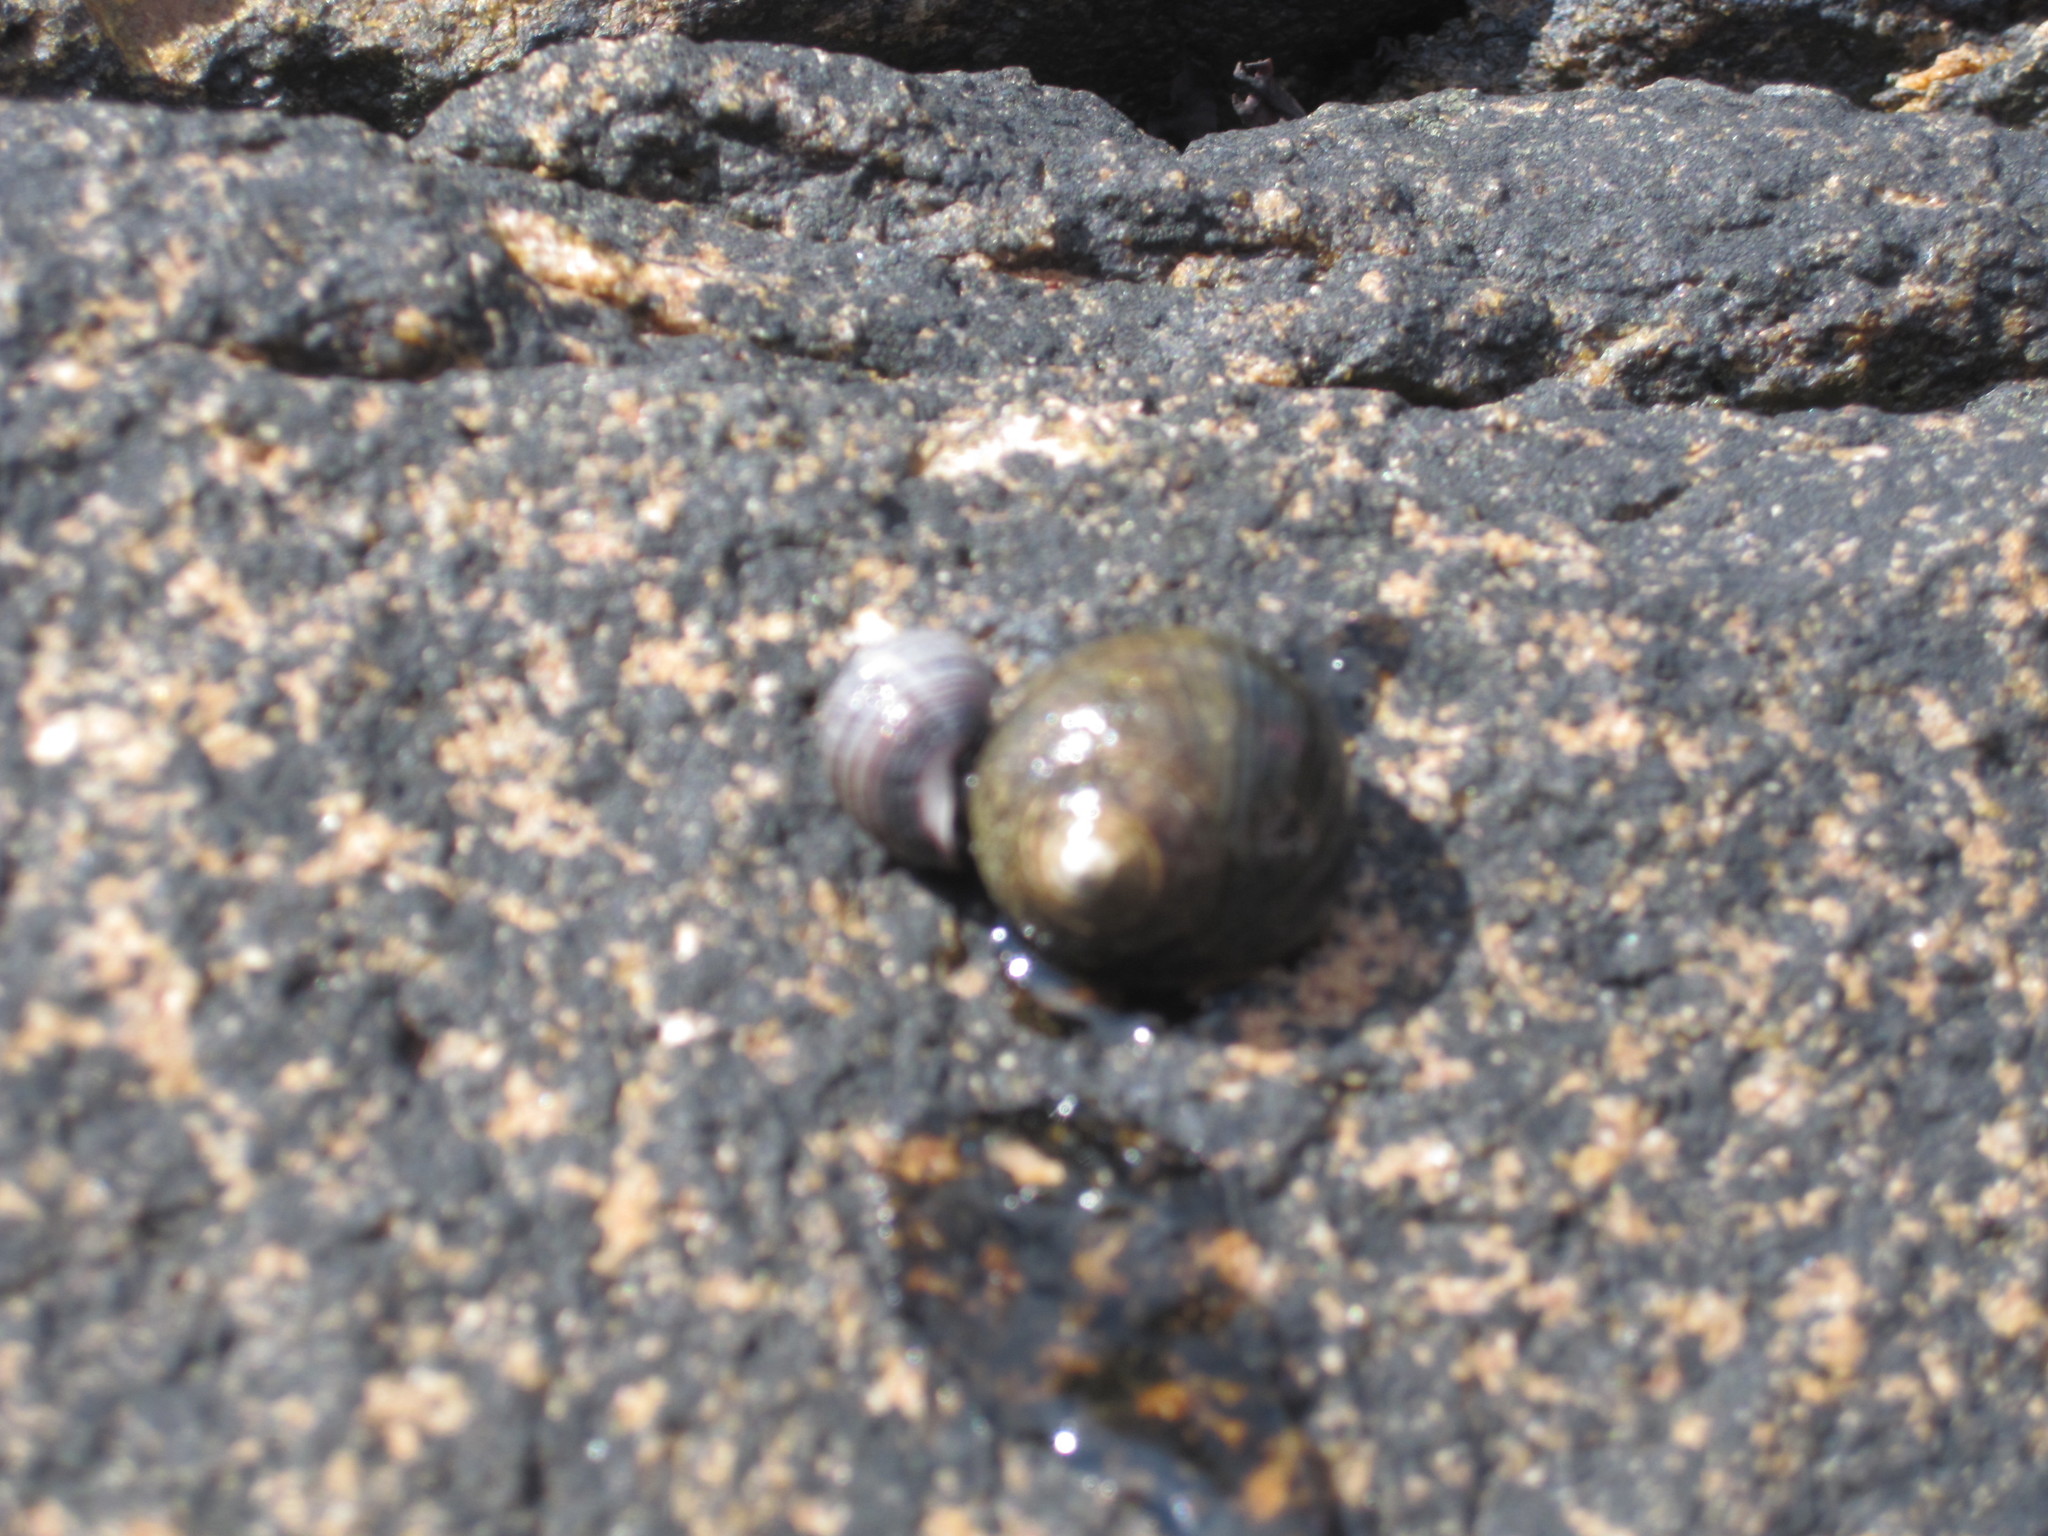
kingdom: Animalia
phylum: Mollusca
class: Gastropoda
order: Littorinimorpha
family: Littorinidae
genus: Littorina
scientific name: Littorina littorea
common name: Common periwinkle
